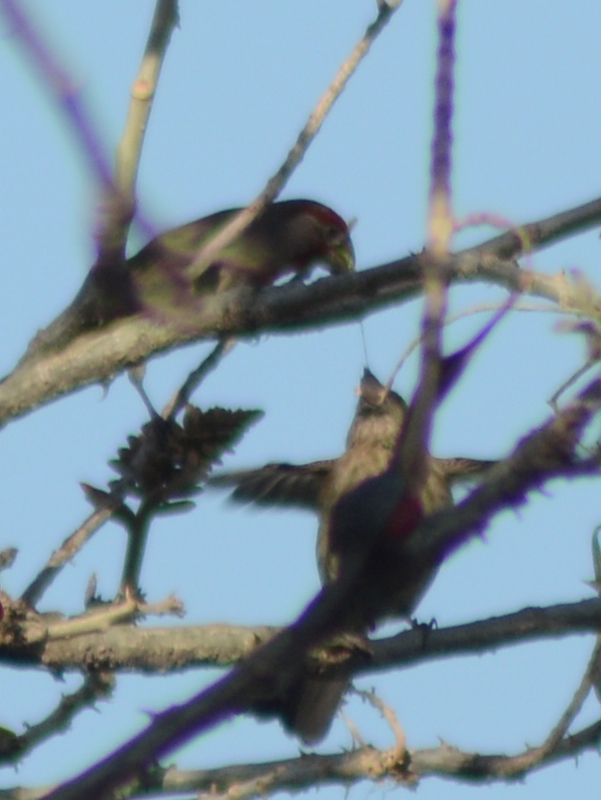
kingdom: Animalia
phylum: Chordata
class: Aves
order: Passeriformes
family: Fringillidae
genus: Haemorhous
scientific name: Haemorhous mexicanus
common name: House finch
